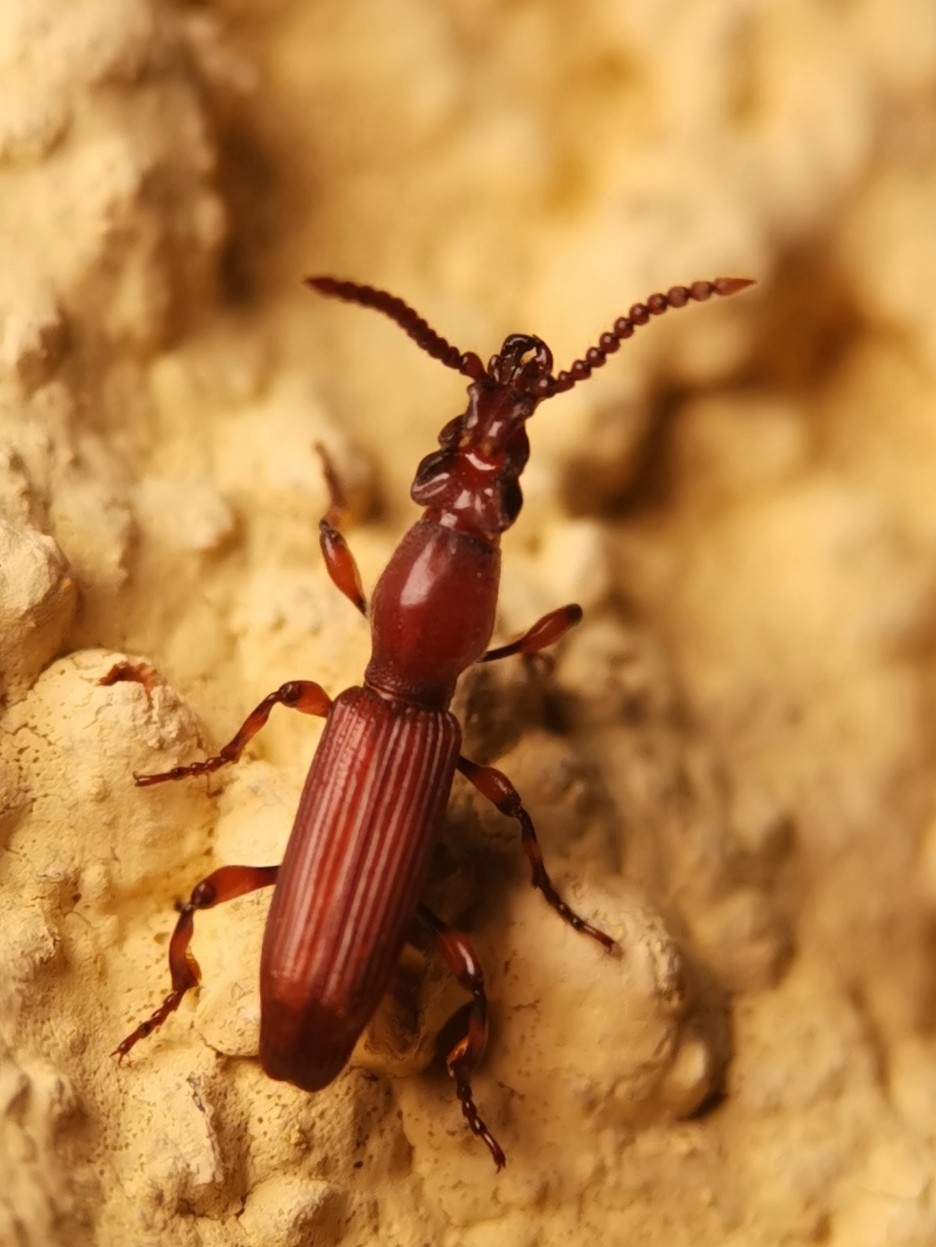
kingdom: Animalia
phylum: Arthropoda
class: Insecta
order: Coleoptera
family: Brentidae
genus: Amorphocephala
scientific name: Amorphocephala coronata
